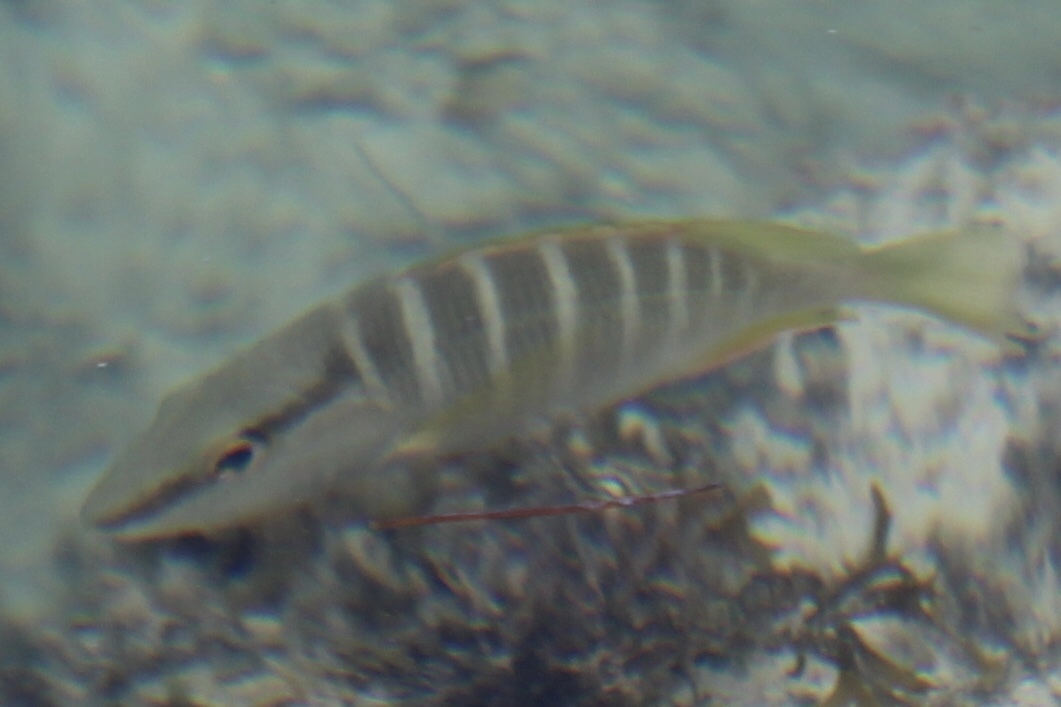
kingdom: Animalia
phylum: Chordata
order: Perciformes
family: Lutjanidae
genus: Lutjanus
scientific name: Lutjanus apodus
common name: Schoolmaster
